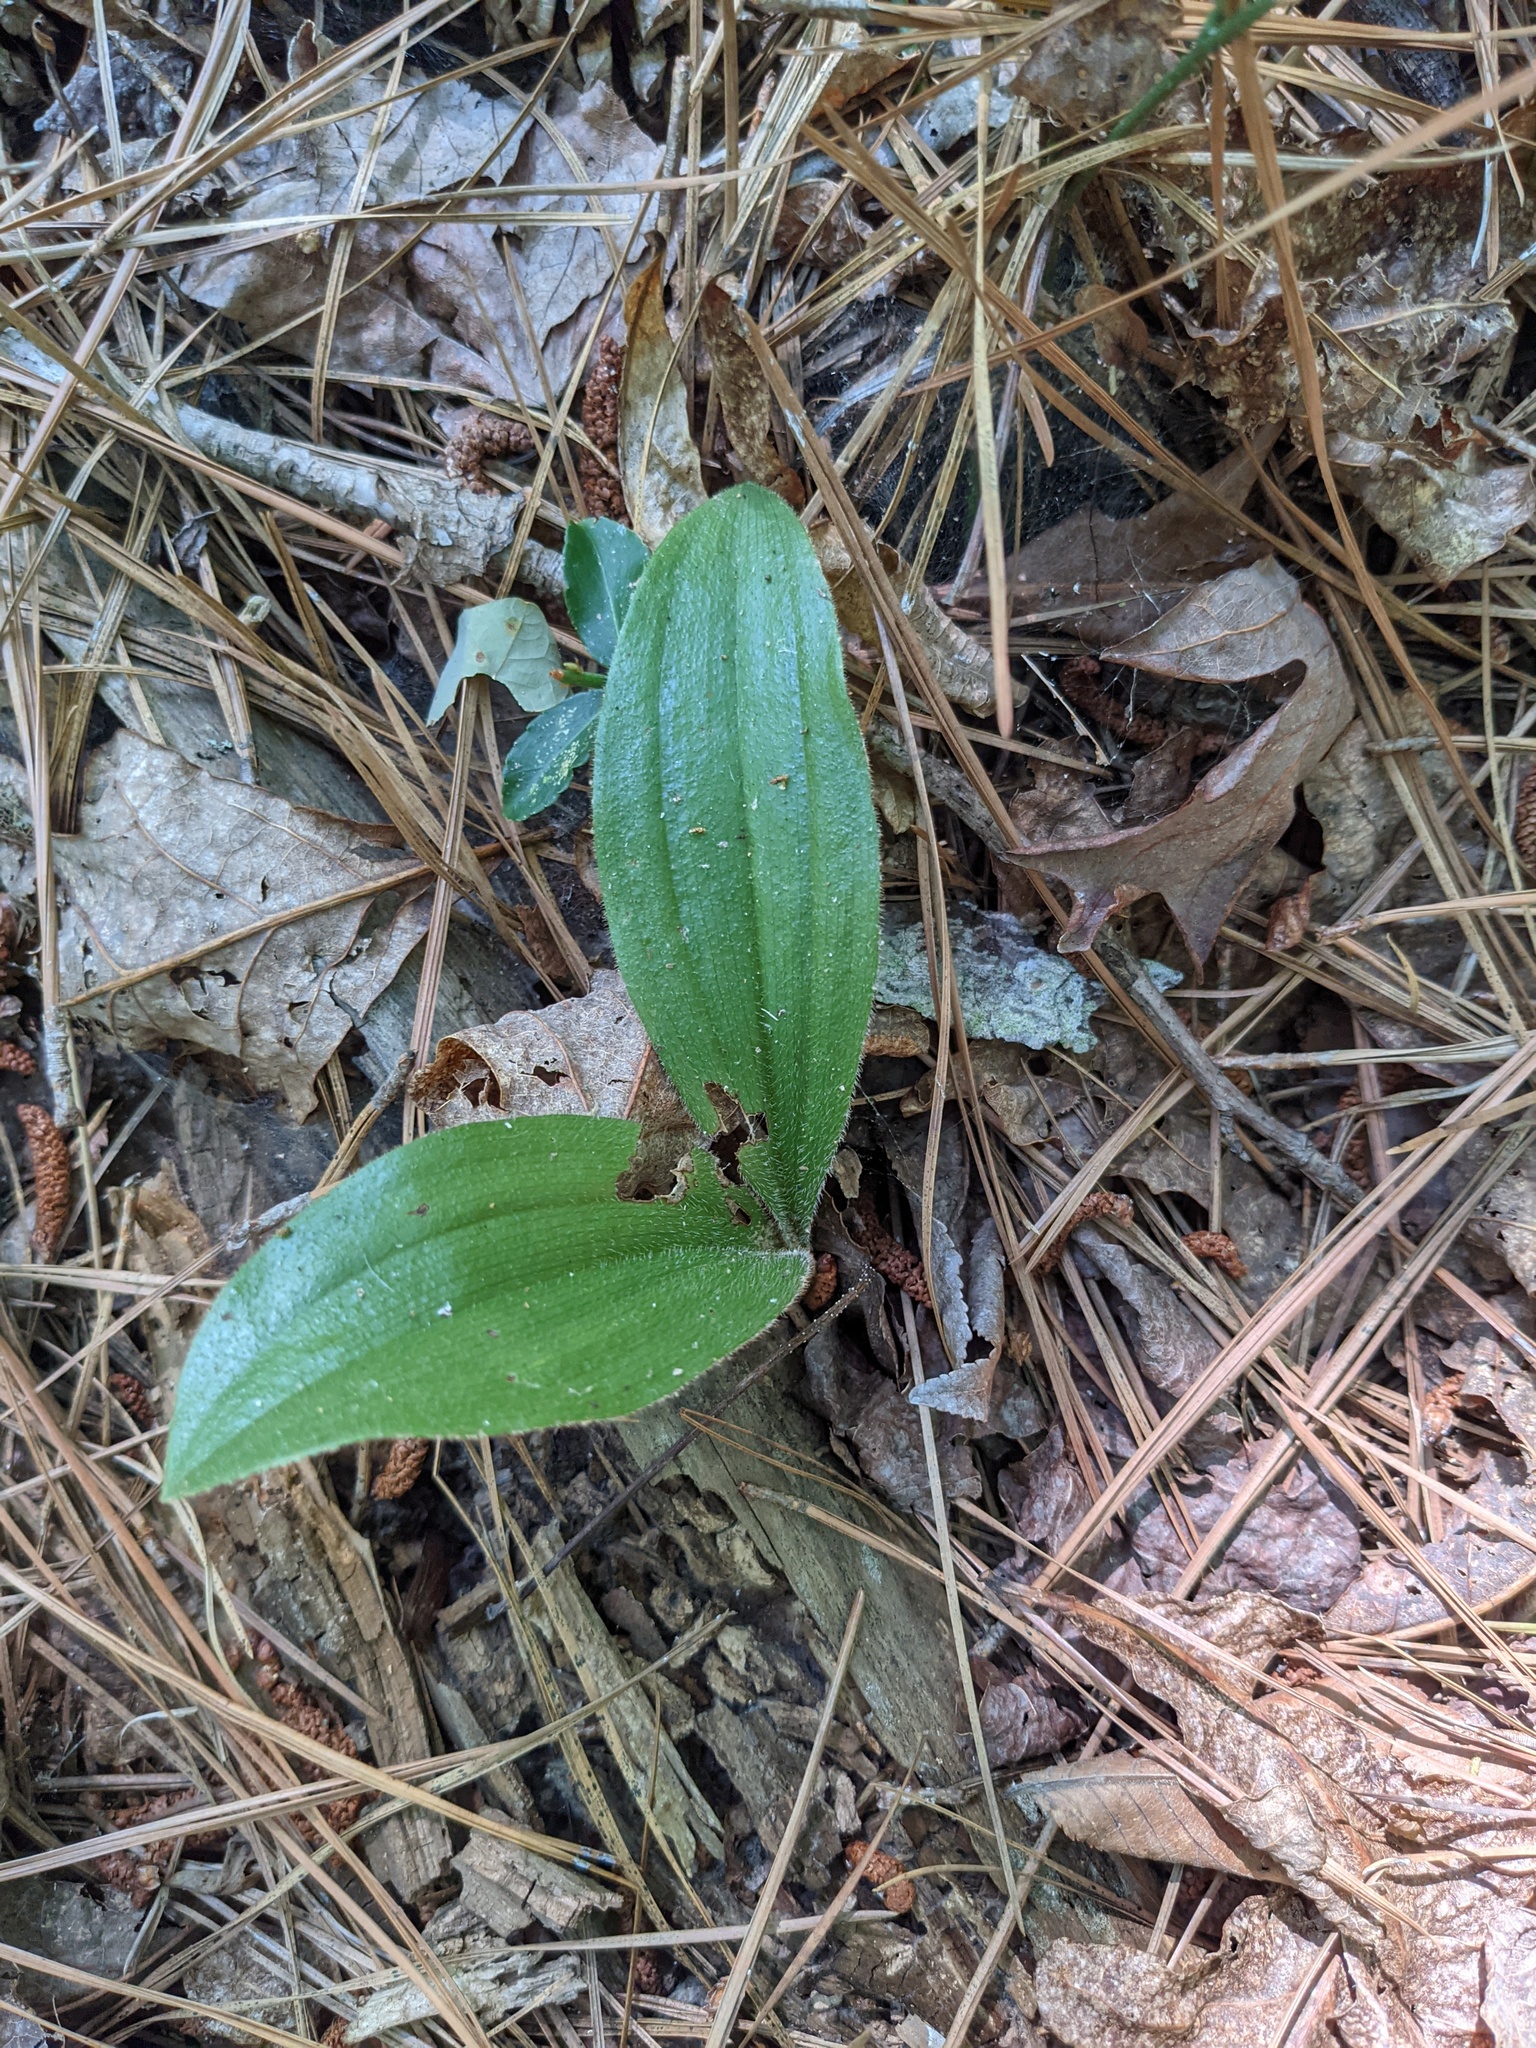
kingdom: Plantae
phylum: Tracheophyta
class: Liliopsida
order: Asparagales
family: Orchidaceae
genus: Cypripedium
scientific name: Cypripedium acaule
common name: Pink lady's-slipper
